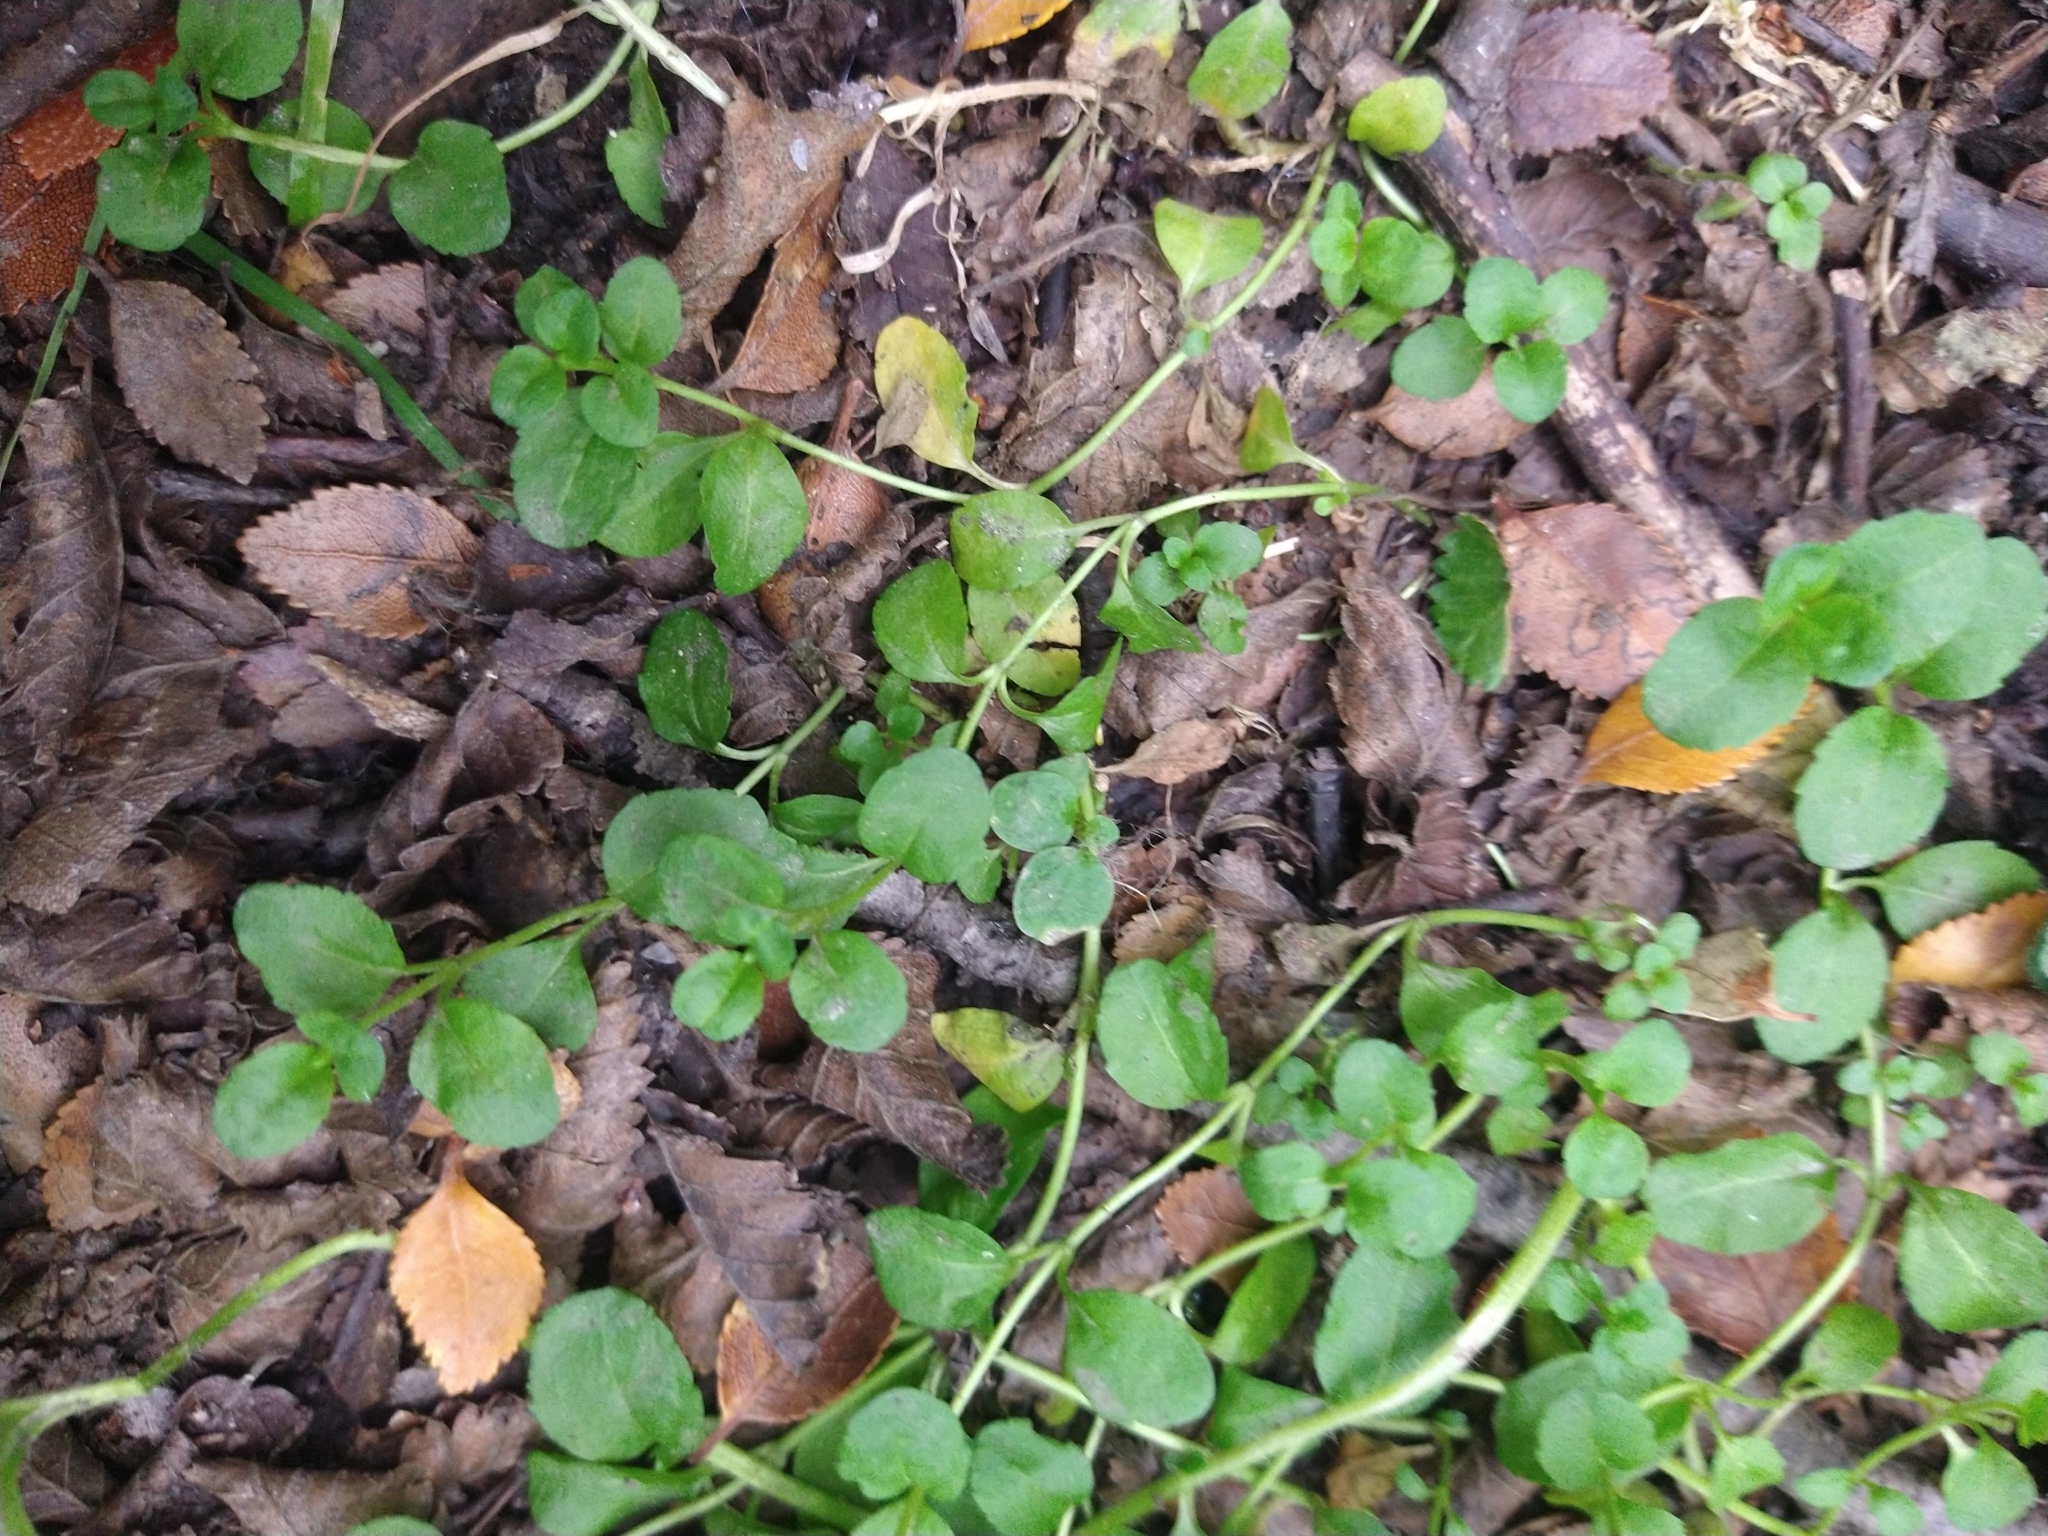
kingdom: Plantae
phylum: Tracheophyta
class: Magnoliopsida
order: Lamiales
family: Plantaginaceae
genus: Veronica
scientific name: Veronica serpyllifolia
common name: Thyme-leaved speedwell
